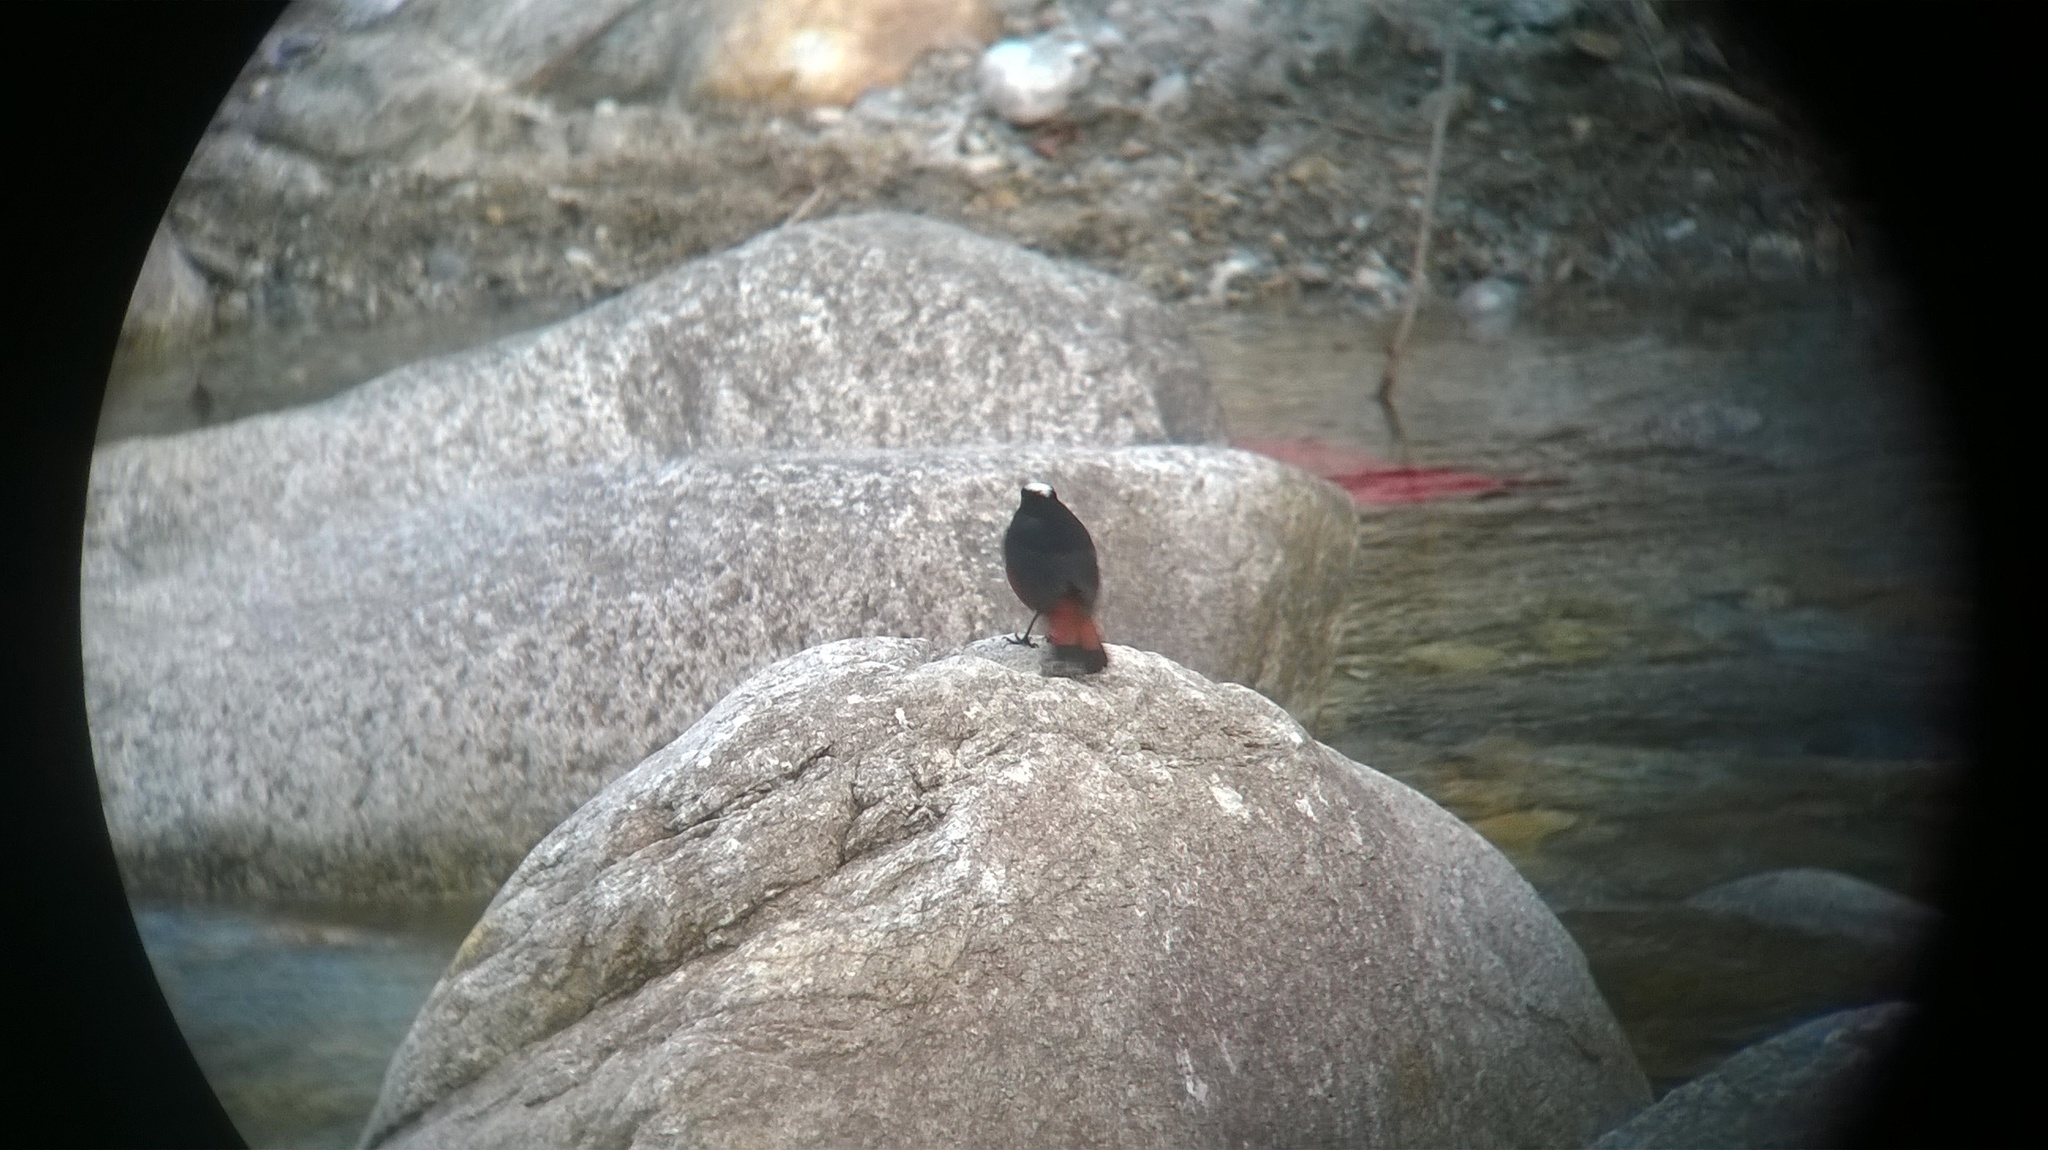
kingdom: Animalia
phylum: Chordata
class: Aves
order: Passeriformes
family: Muscicapidae
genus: Chaimarrornis
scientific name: Chaimarrornis leucocephalus
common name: White-capped redstart
